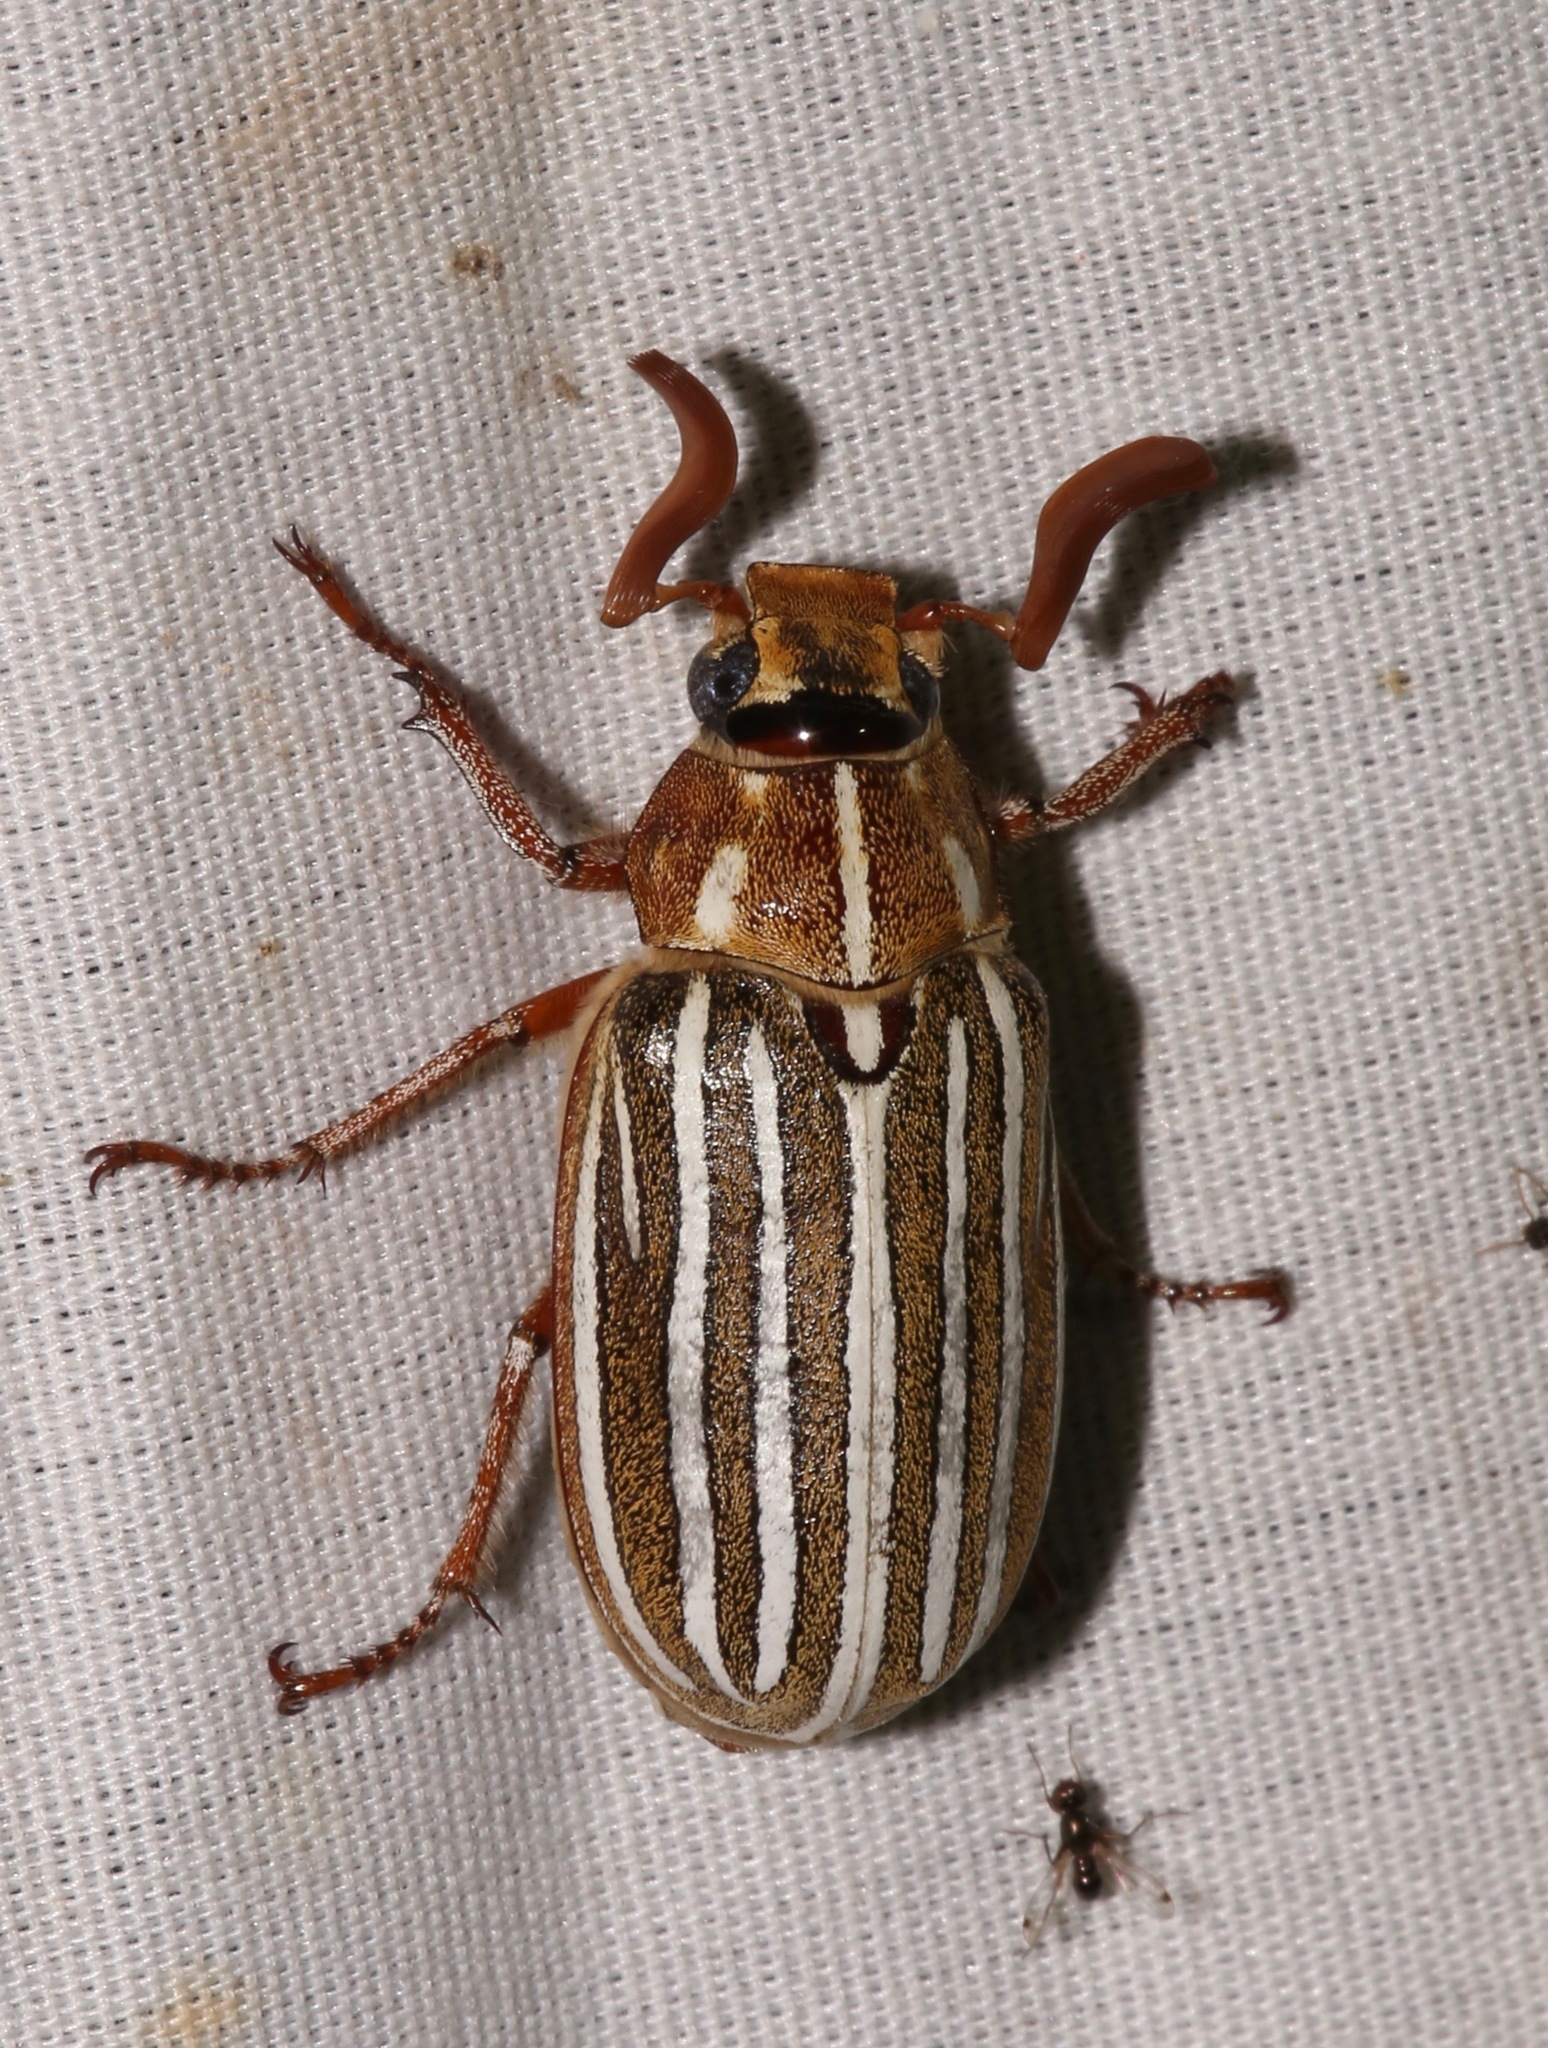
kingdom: Animalia
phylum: Arthropoda
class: Insecta
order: Coleoptera
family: Scarabaeidae
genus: Polyphylla
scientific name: Polyphylla decemlineata
